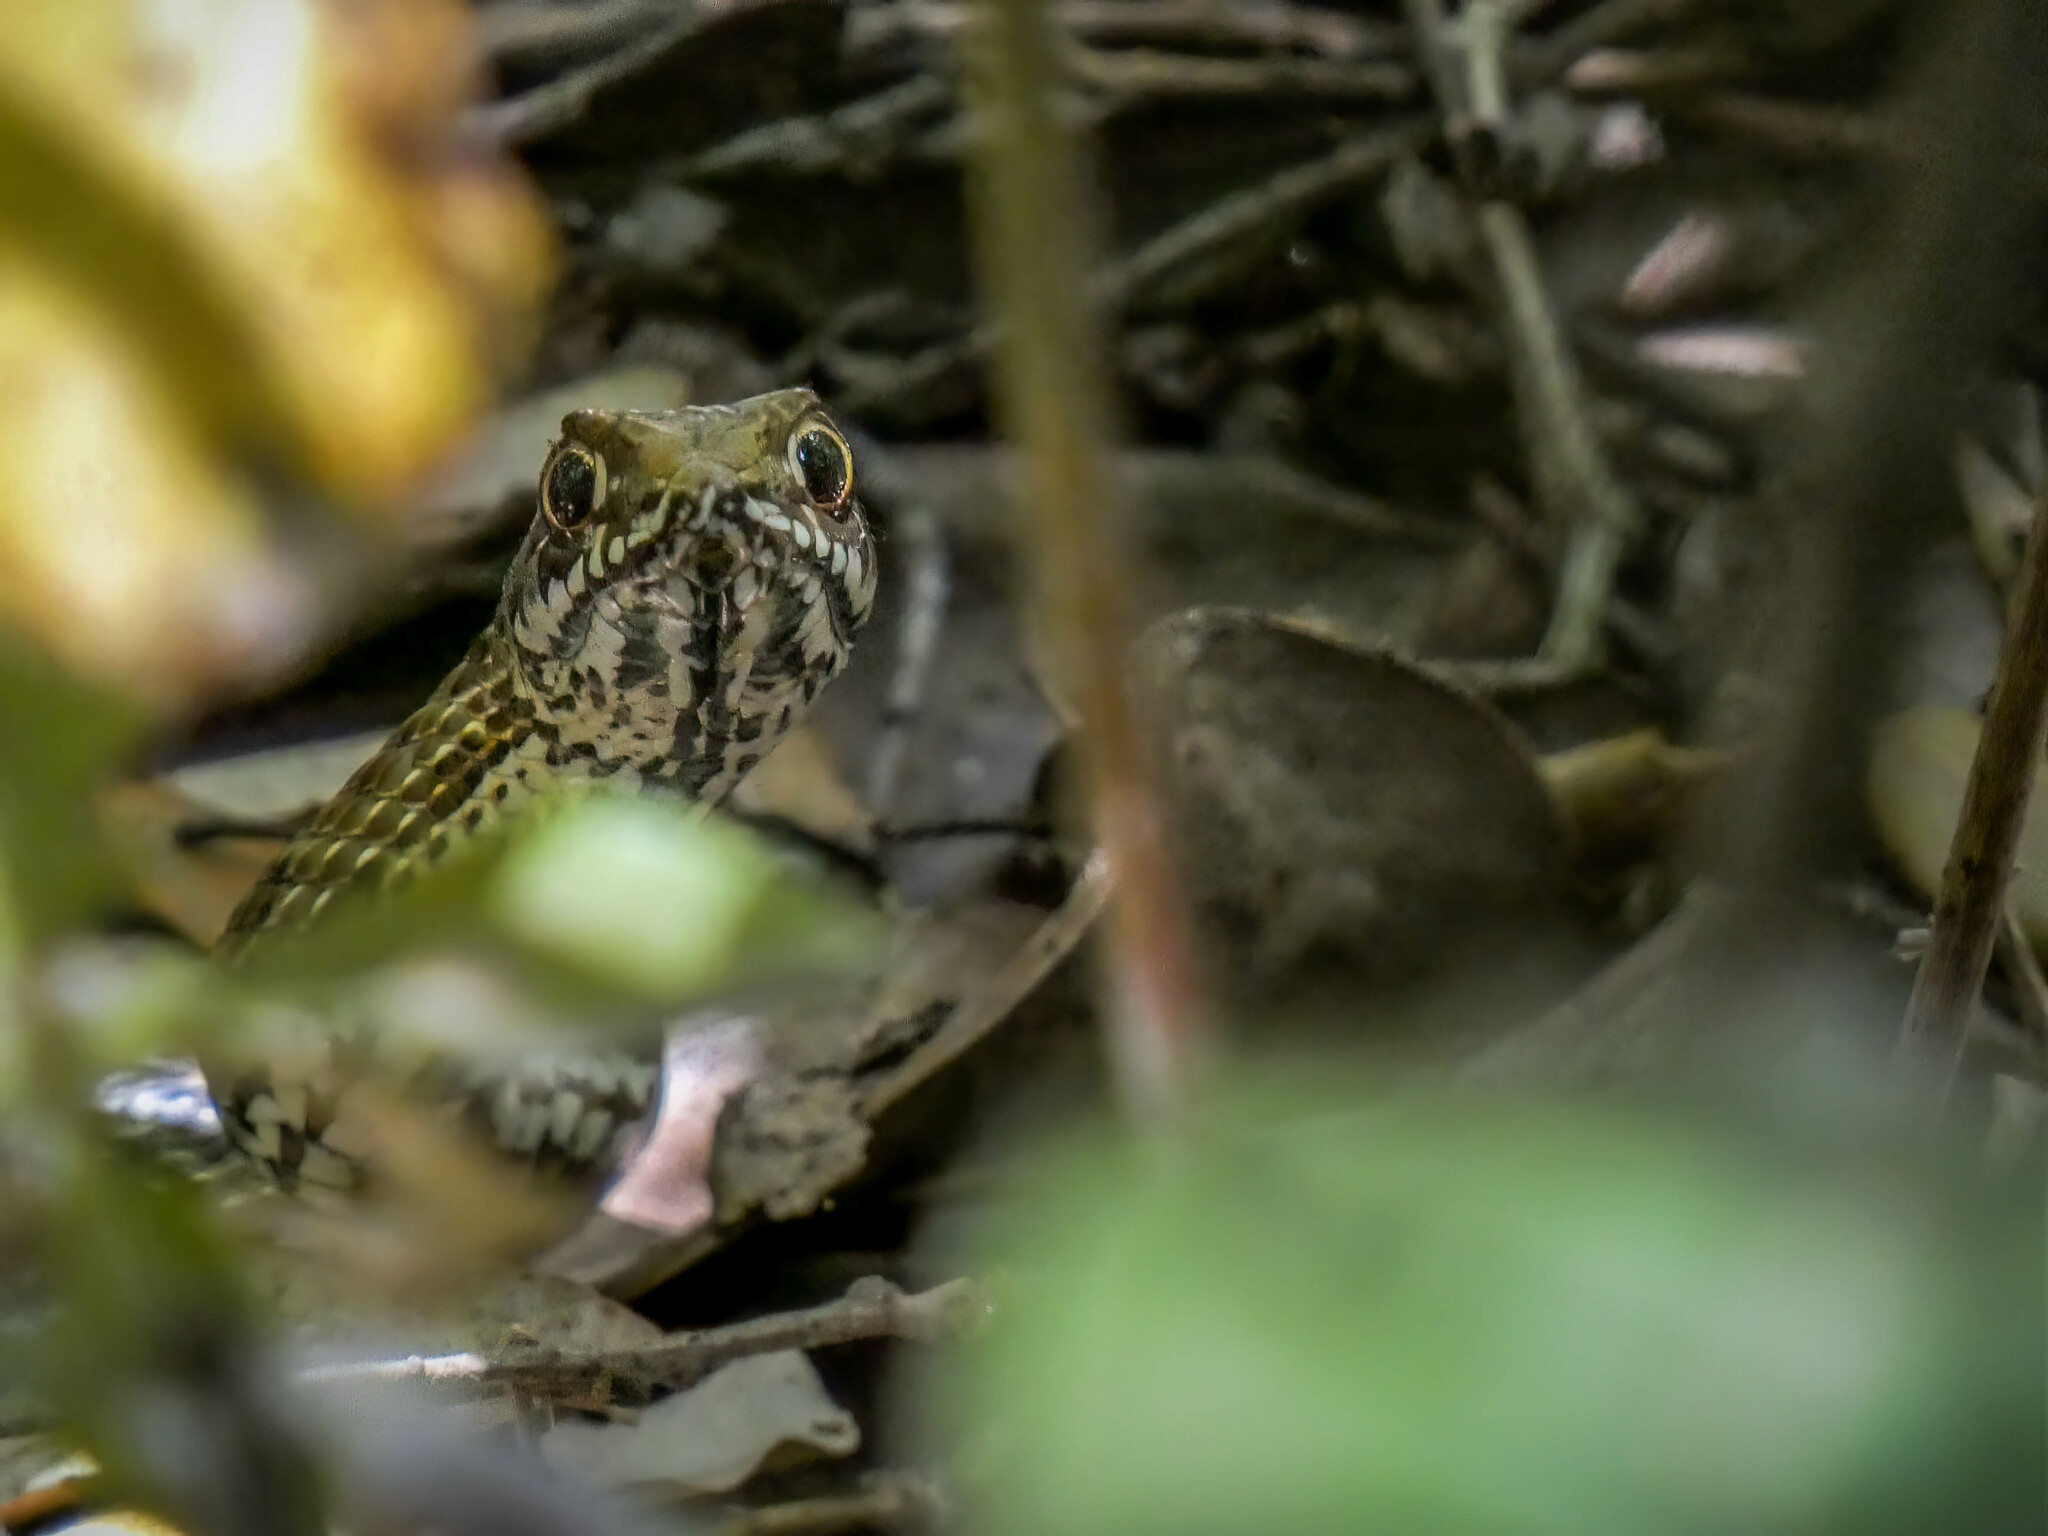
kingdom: Animalia
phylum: Chordata
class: Squamata
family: Psammophiidae
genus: Malpolon
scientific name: Malpolon monspessulanus
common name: Montpellier snake
